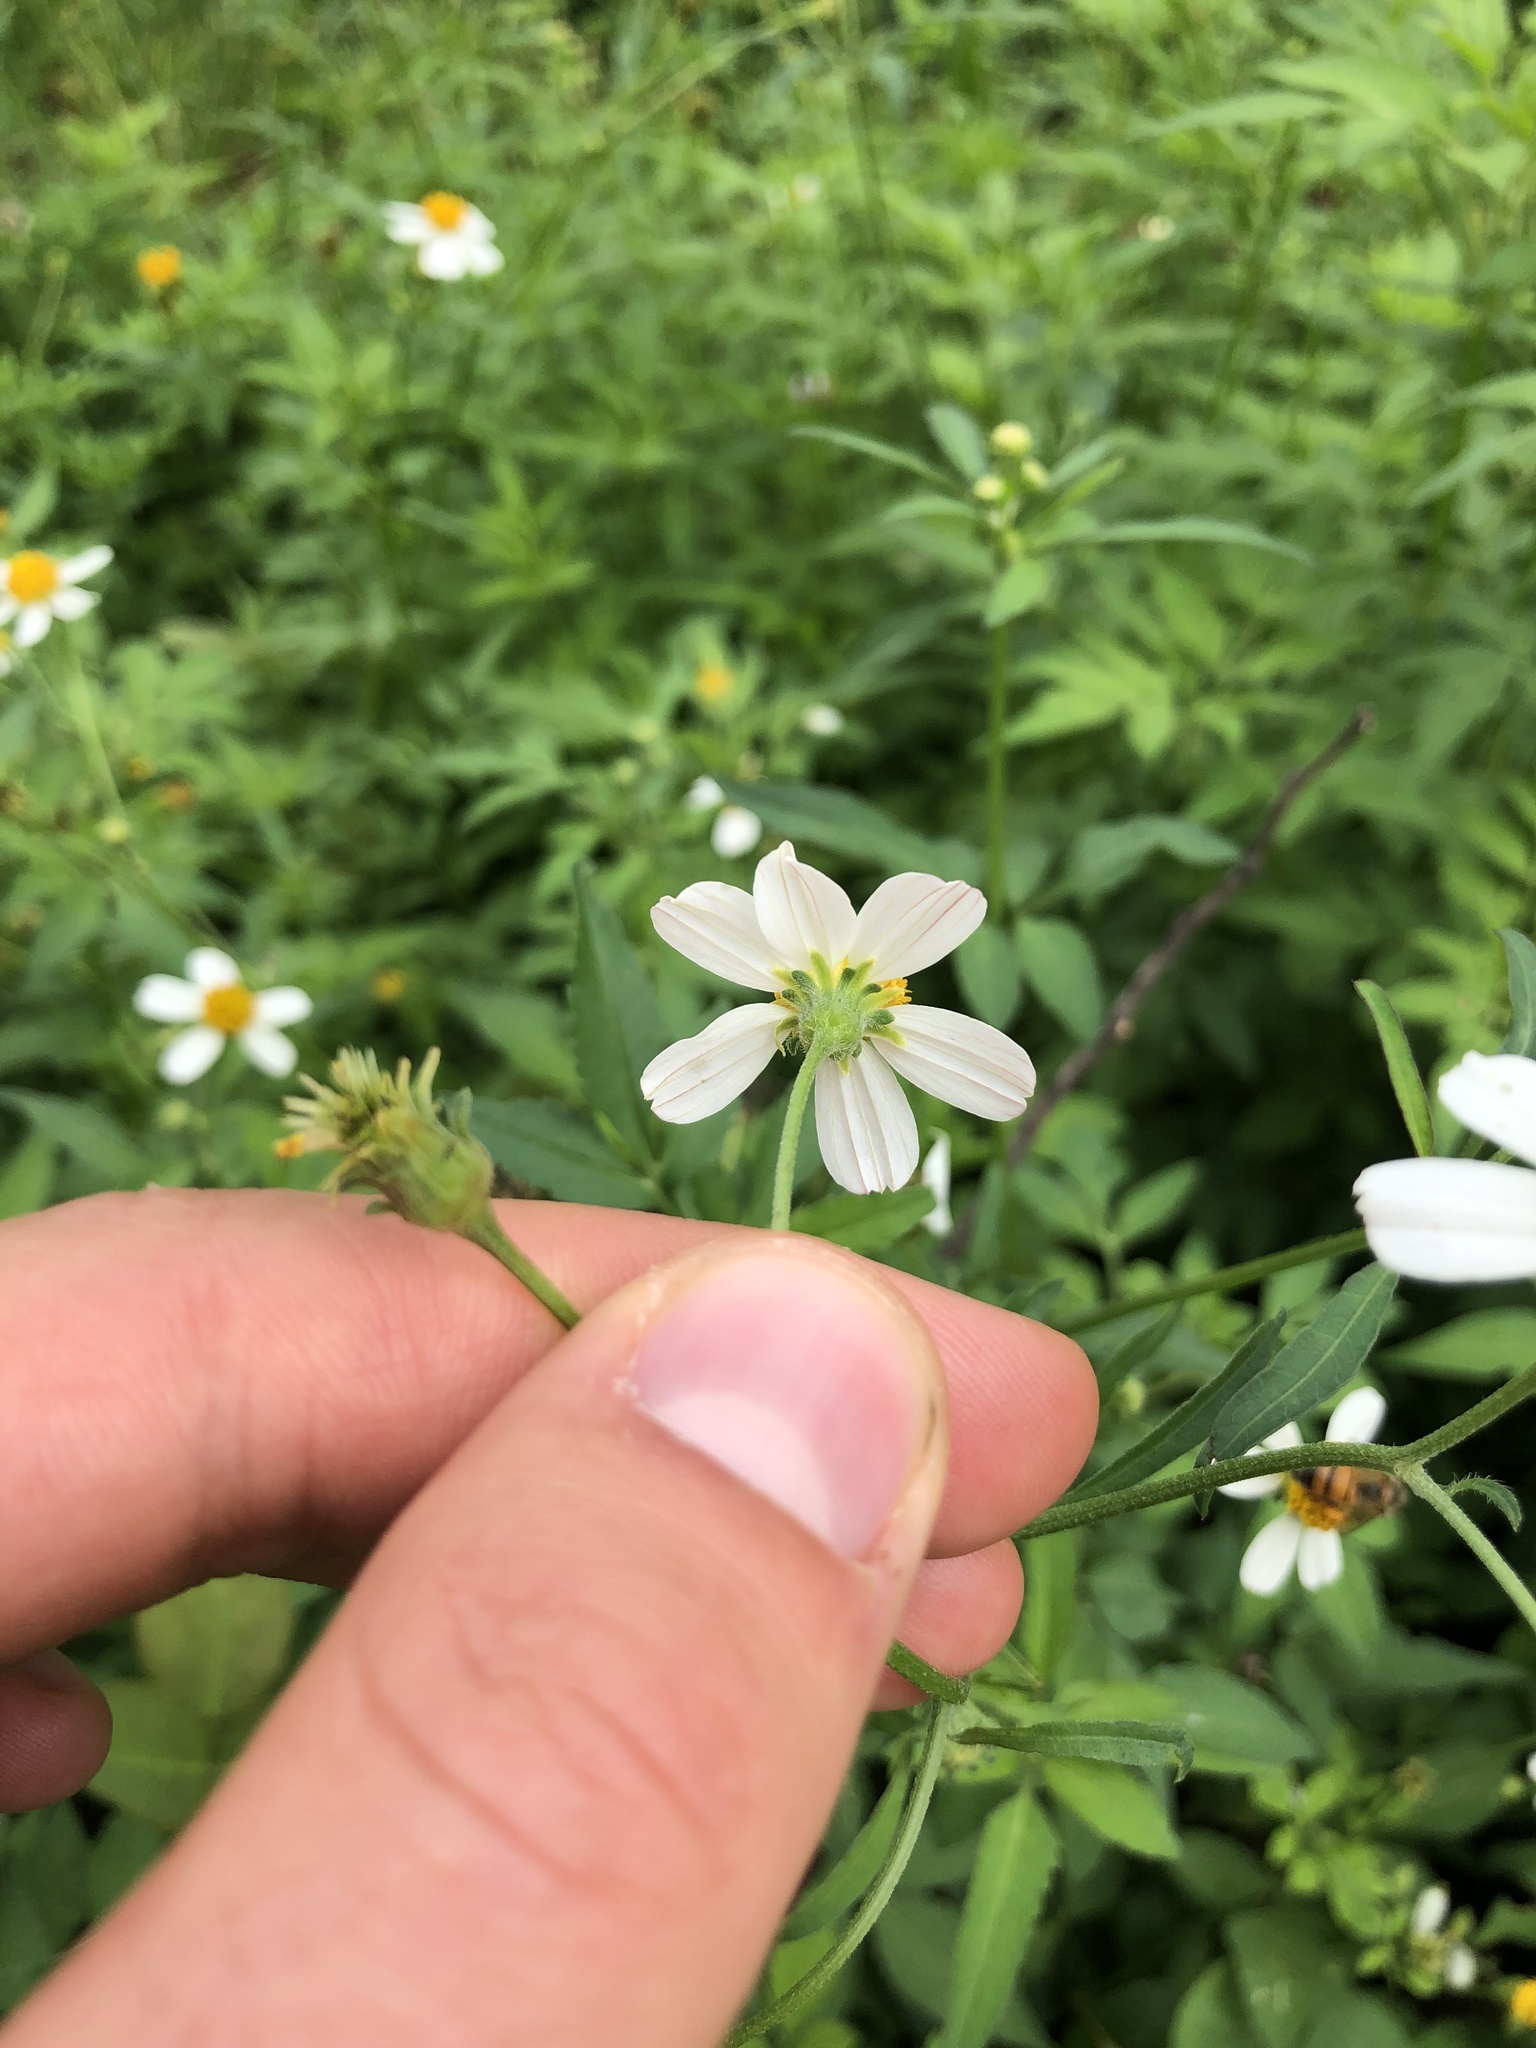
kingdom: Plantae
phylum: Tracheophyta
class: Magnoliopsida
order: Asterales
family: Asteraceae
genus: Bidens
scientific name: Bidens alba
